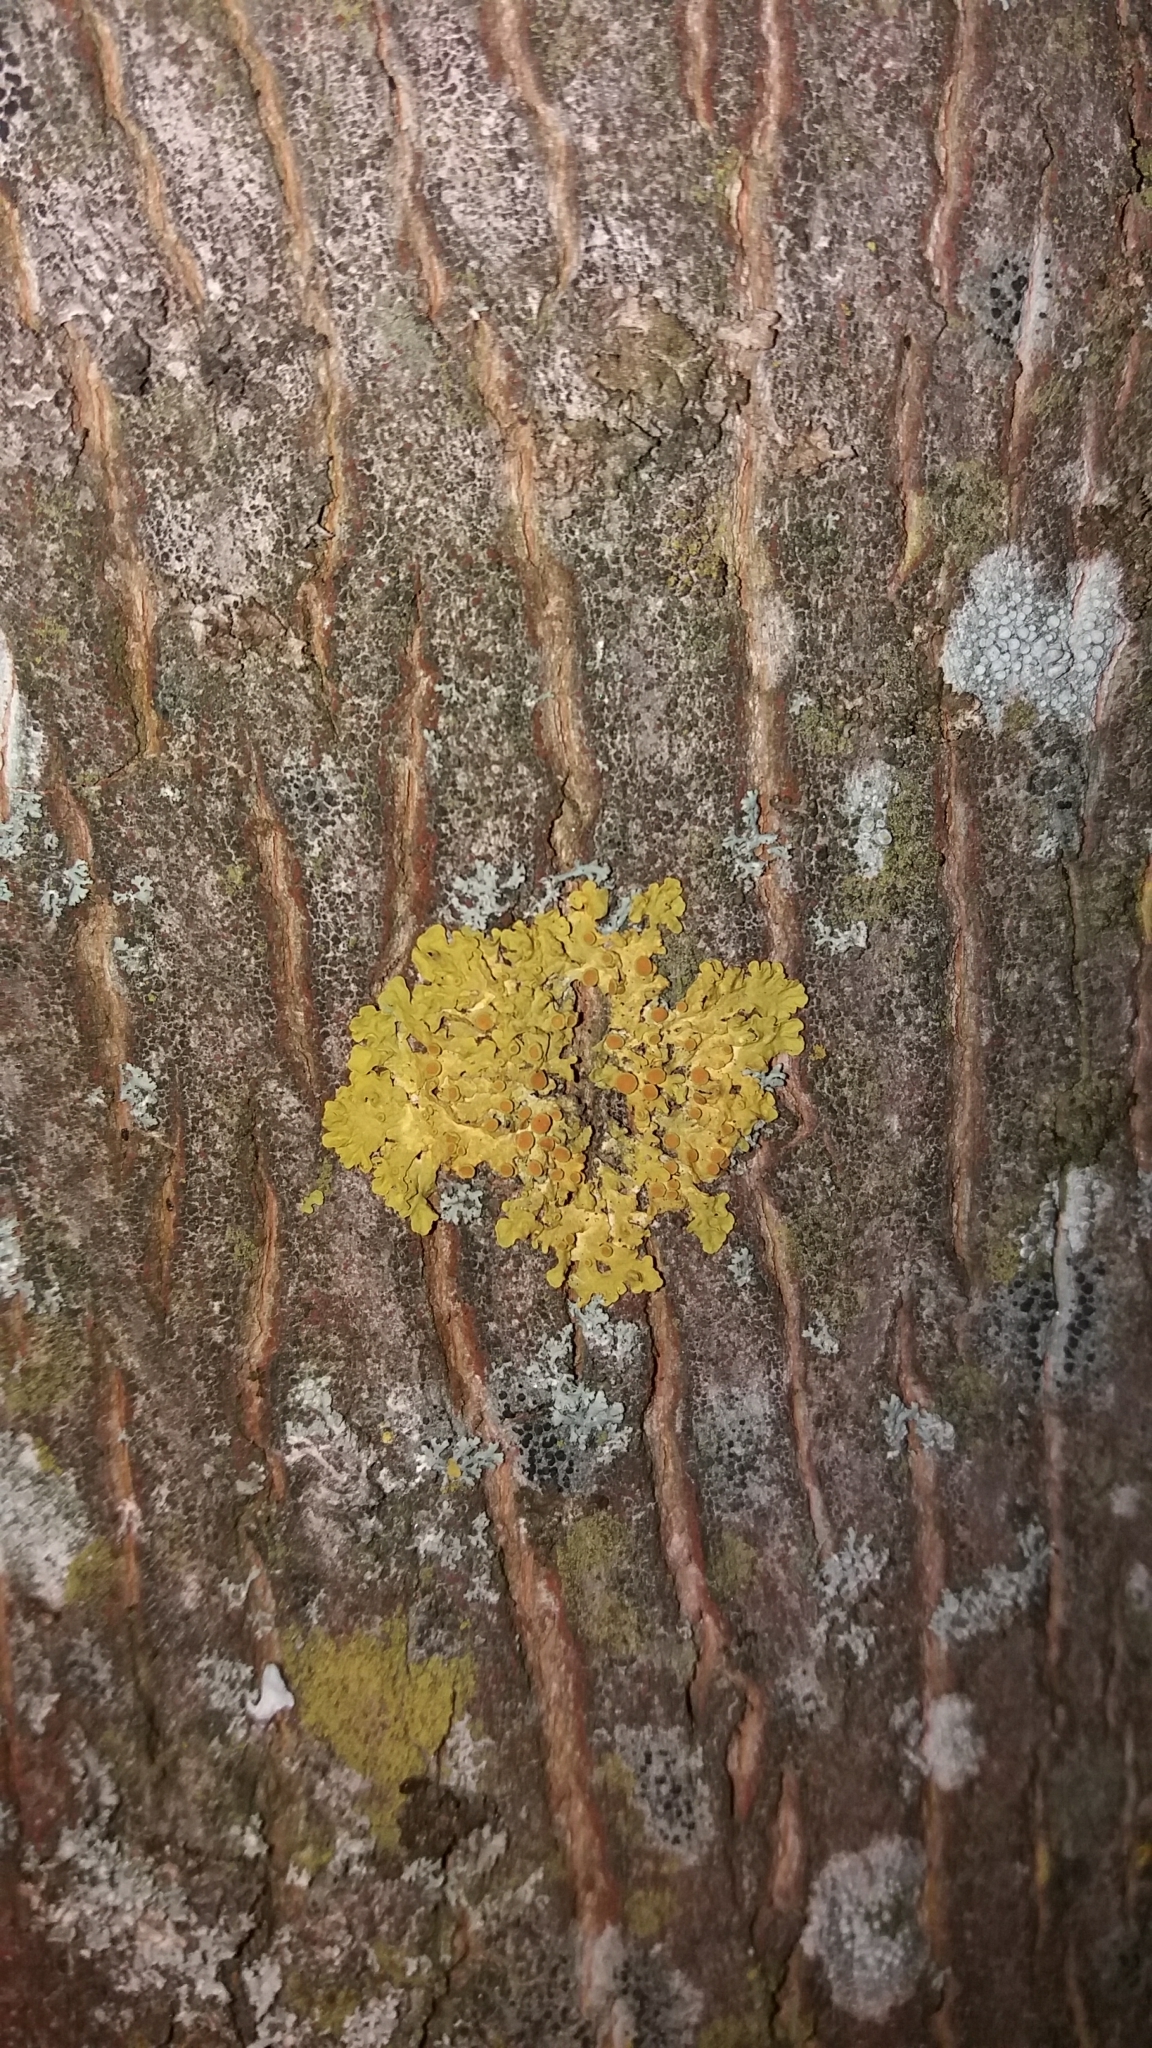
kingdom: Fungi
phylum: Ascomycota
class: Lecanoromycetes
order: Teloschistales
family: Teloschistaceae
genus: Xanthoria
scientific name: Xanthoria parietina
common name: Common orange lichen
